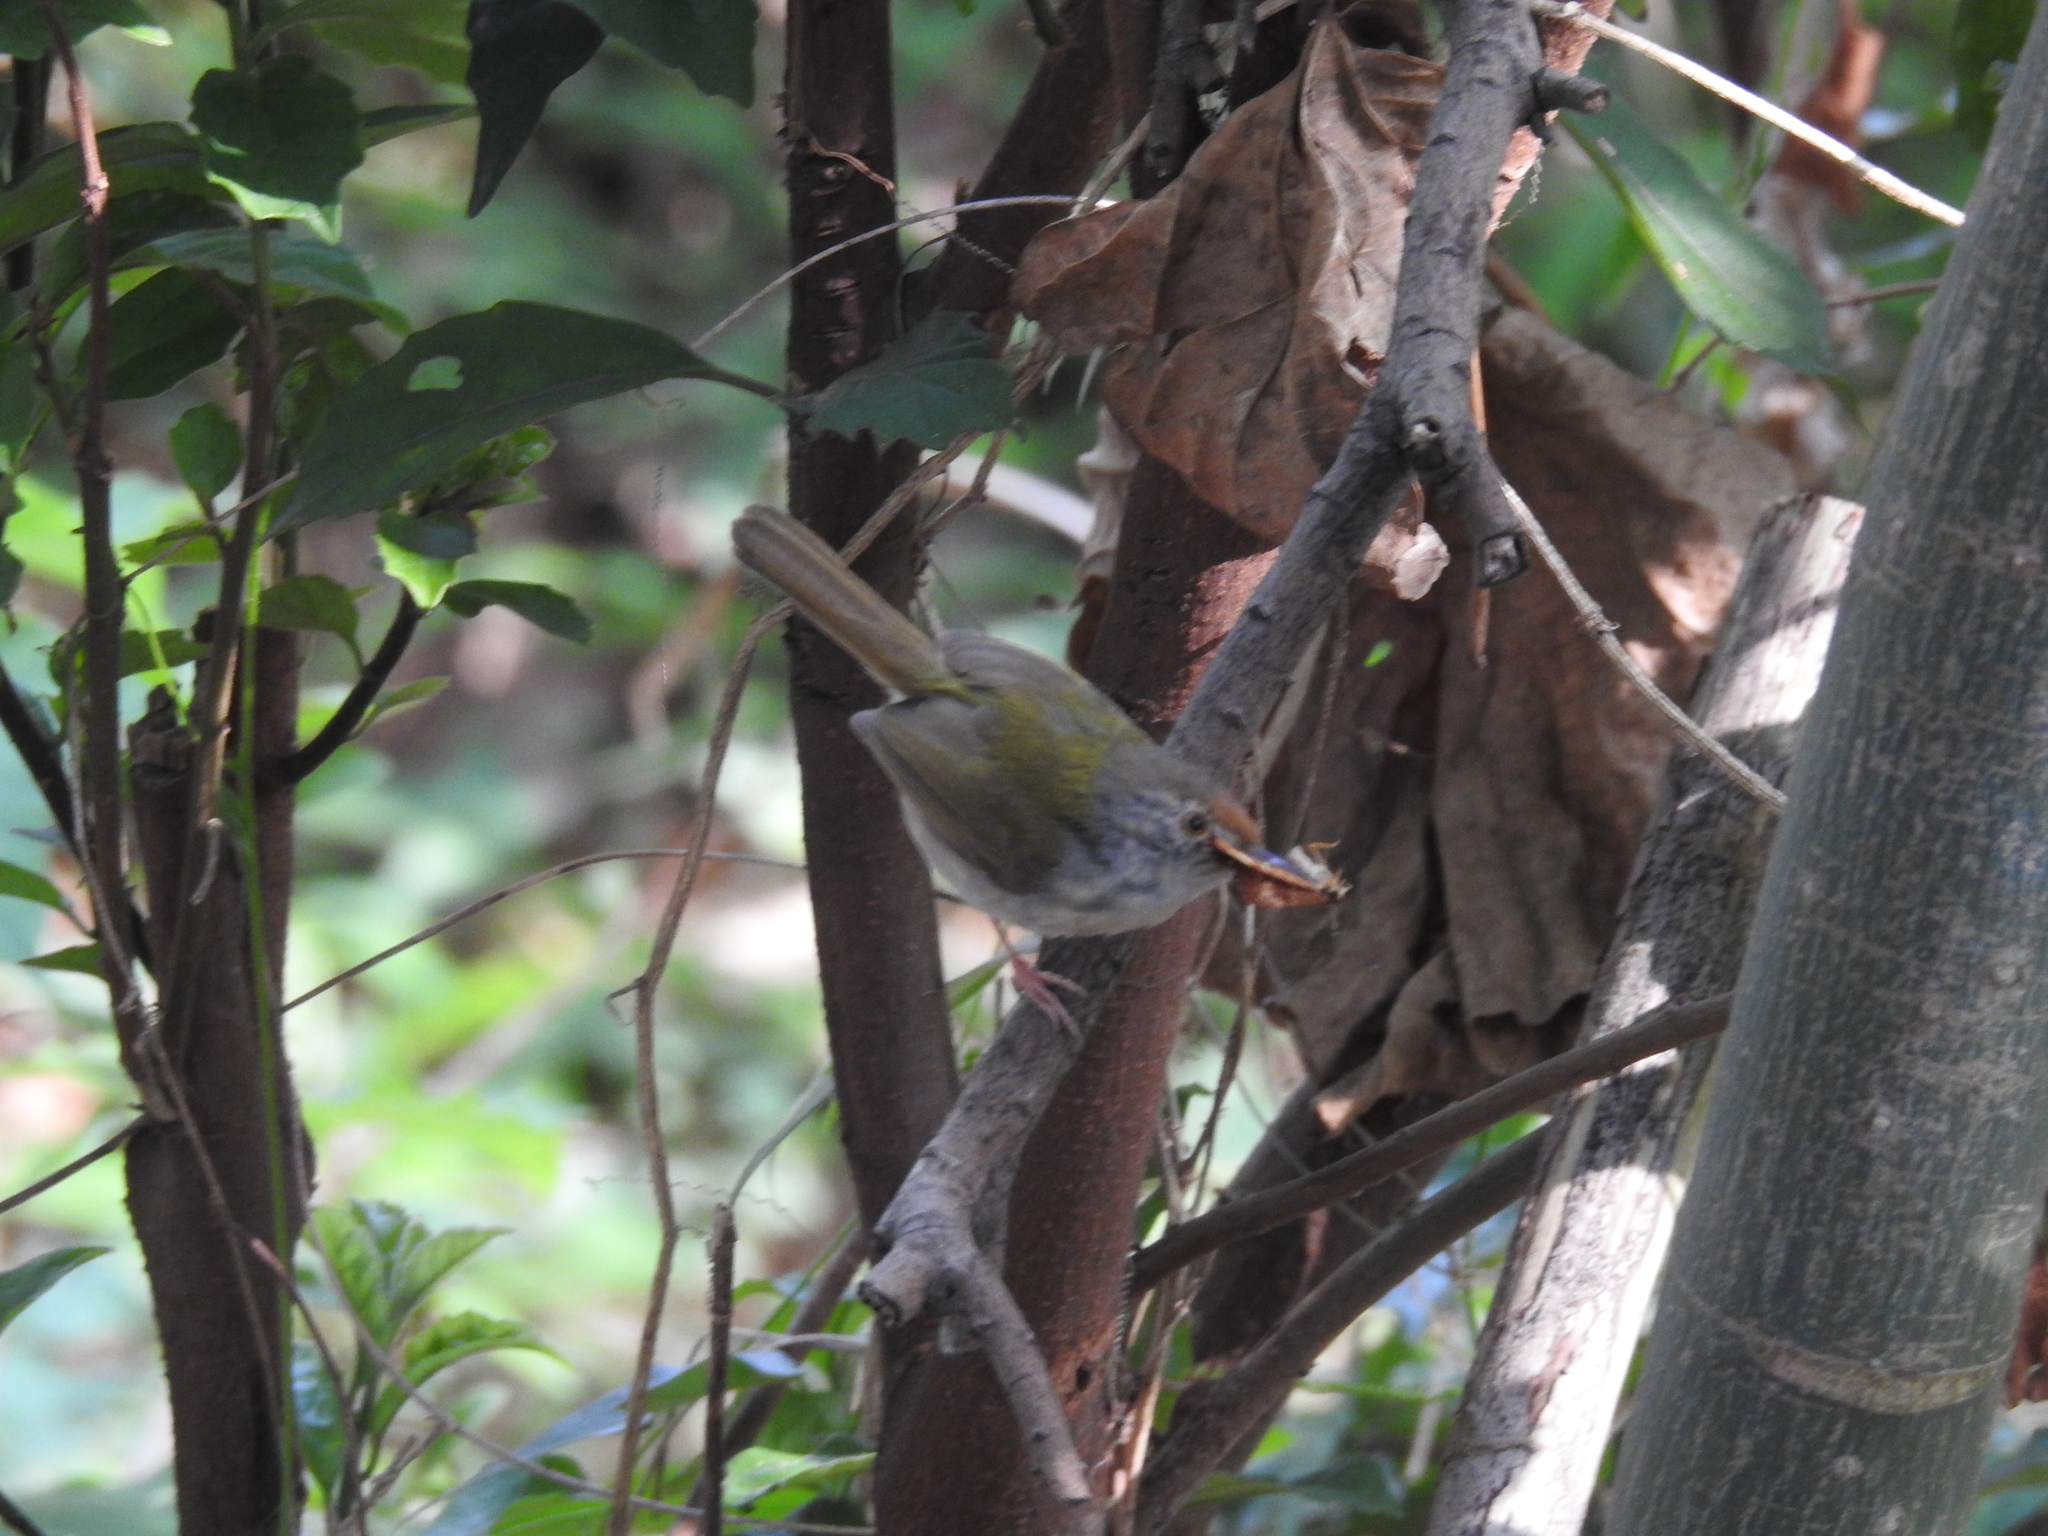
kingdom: Animalia
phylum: Chordata
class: Aves
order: Passeriformes
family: Cisticolidae
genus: Orthotomus
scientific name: Orthotomus sutorius
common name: Common tailorbird
